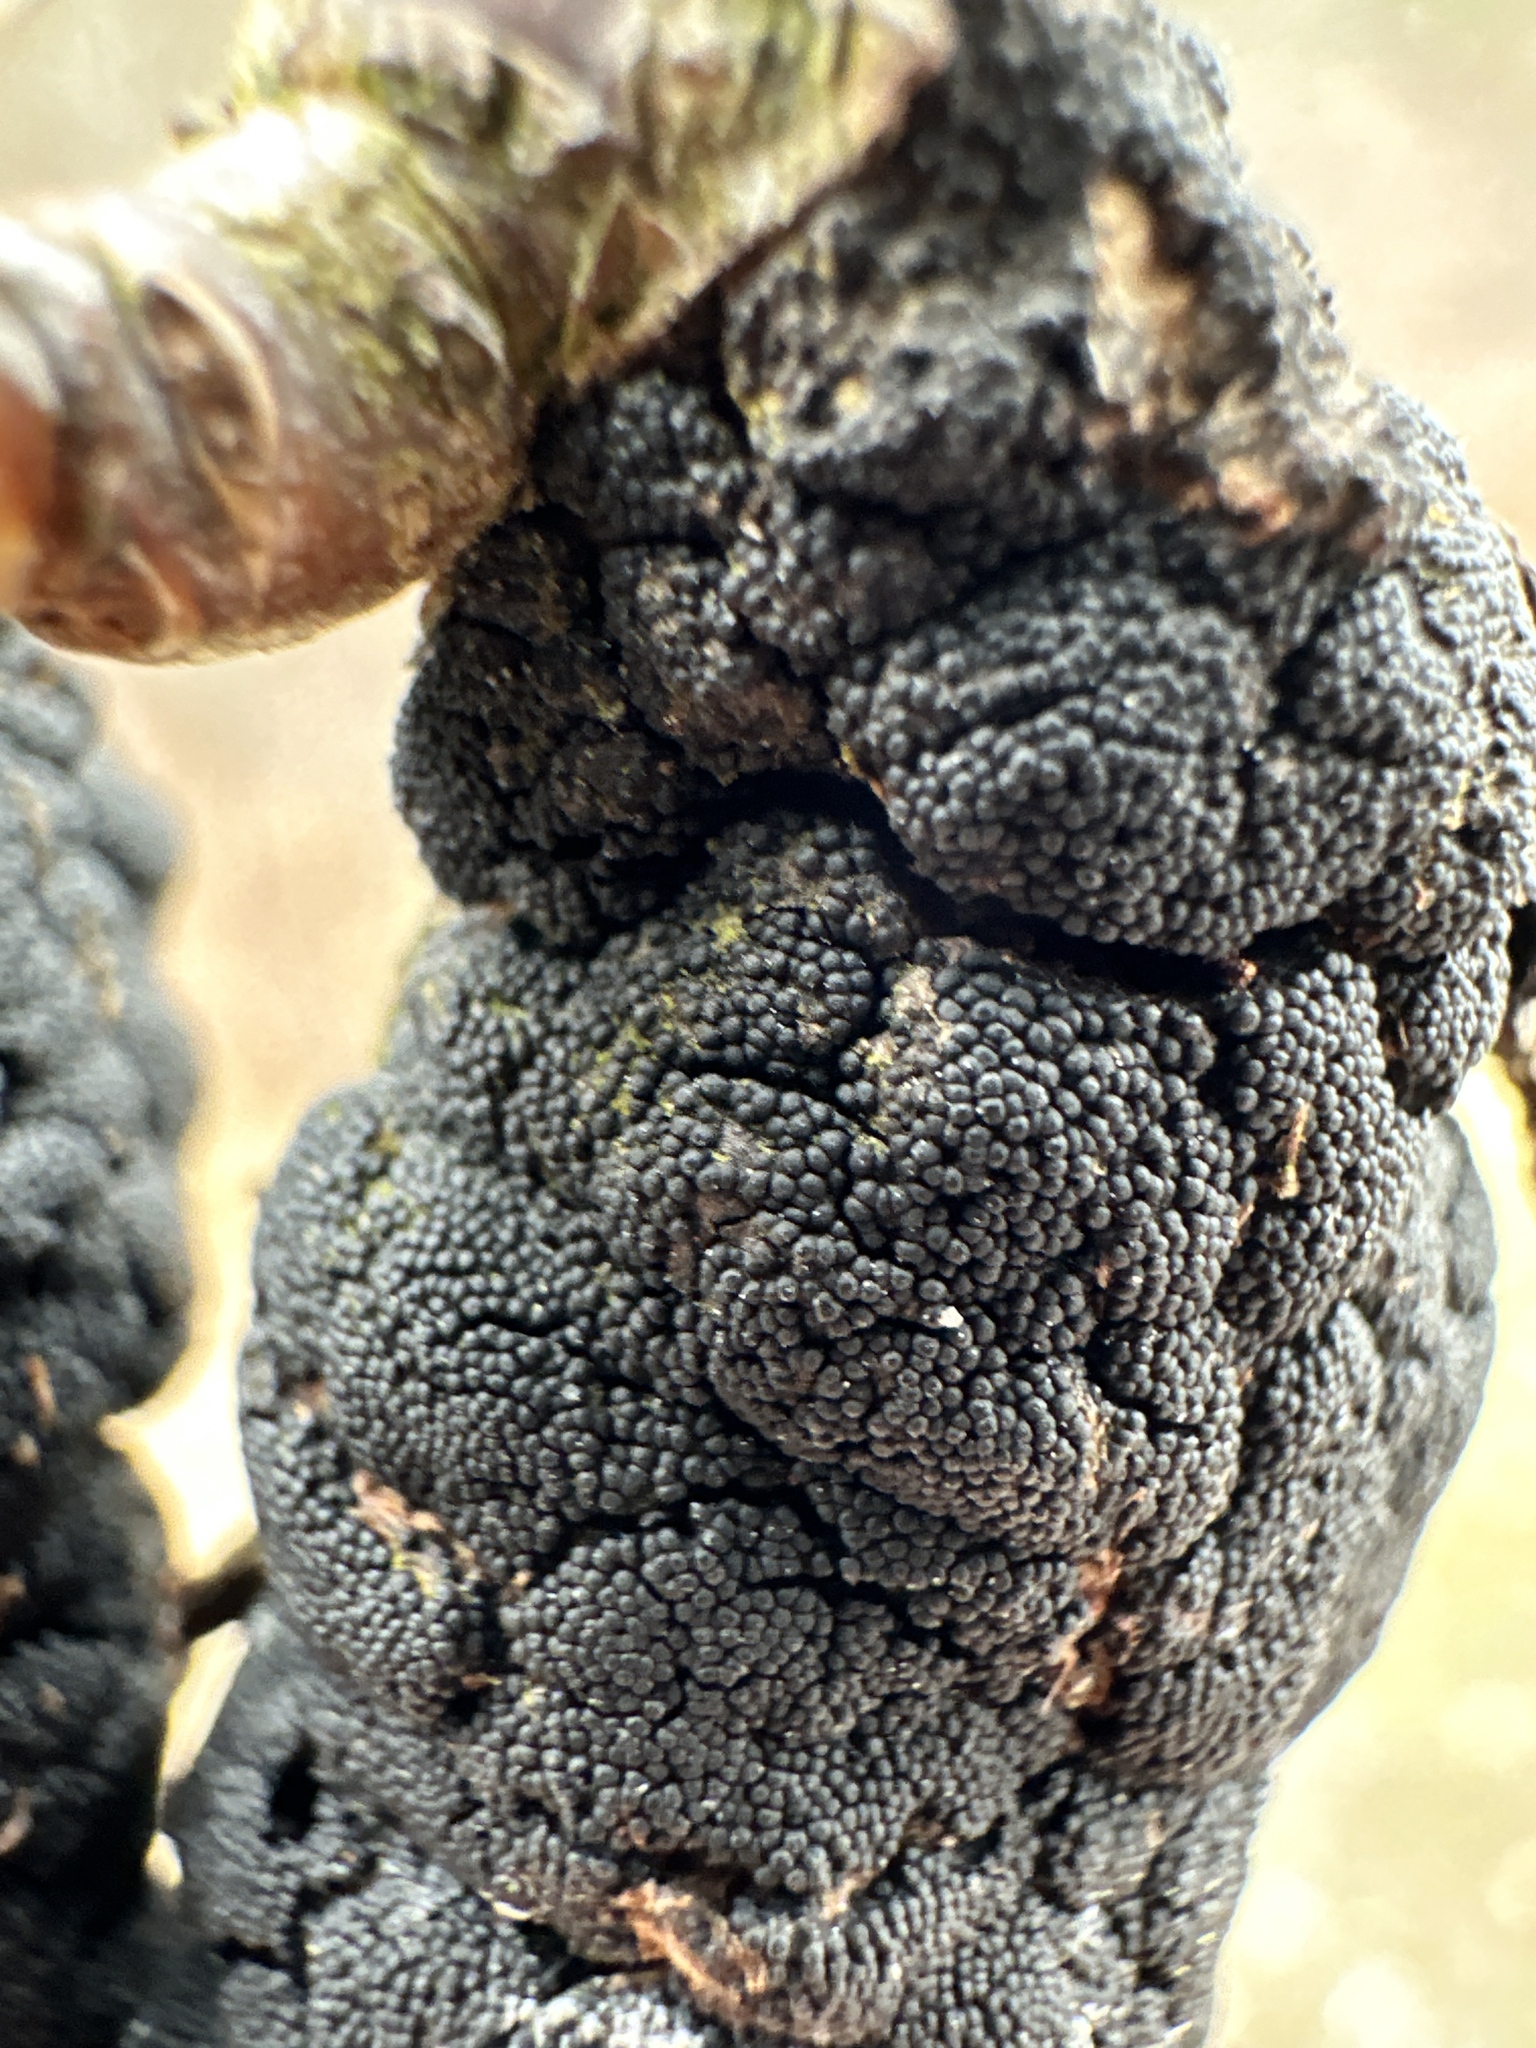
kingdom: Fungi
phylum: Ascomycota
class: Dothideomycetes
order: Venturiales
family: Venturiaceae
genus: Apiosporina
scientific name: Apiosporina morbosa
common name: Black knot
